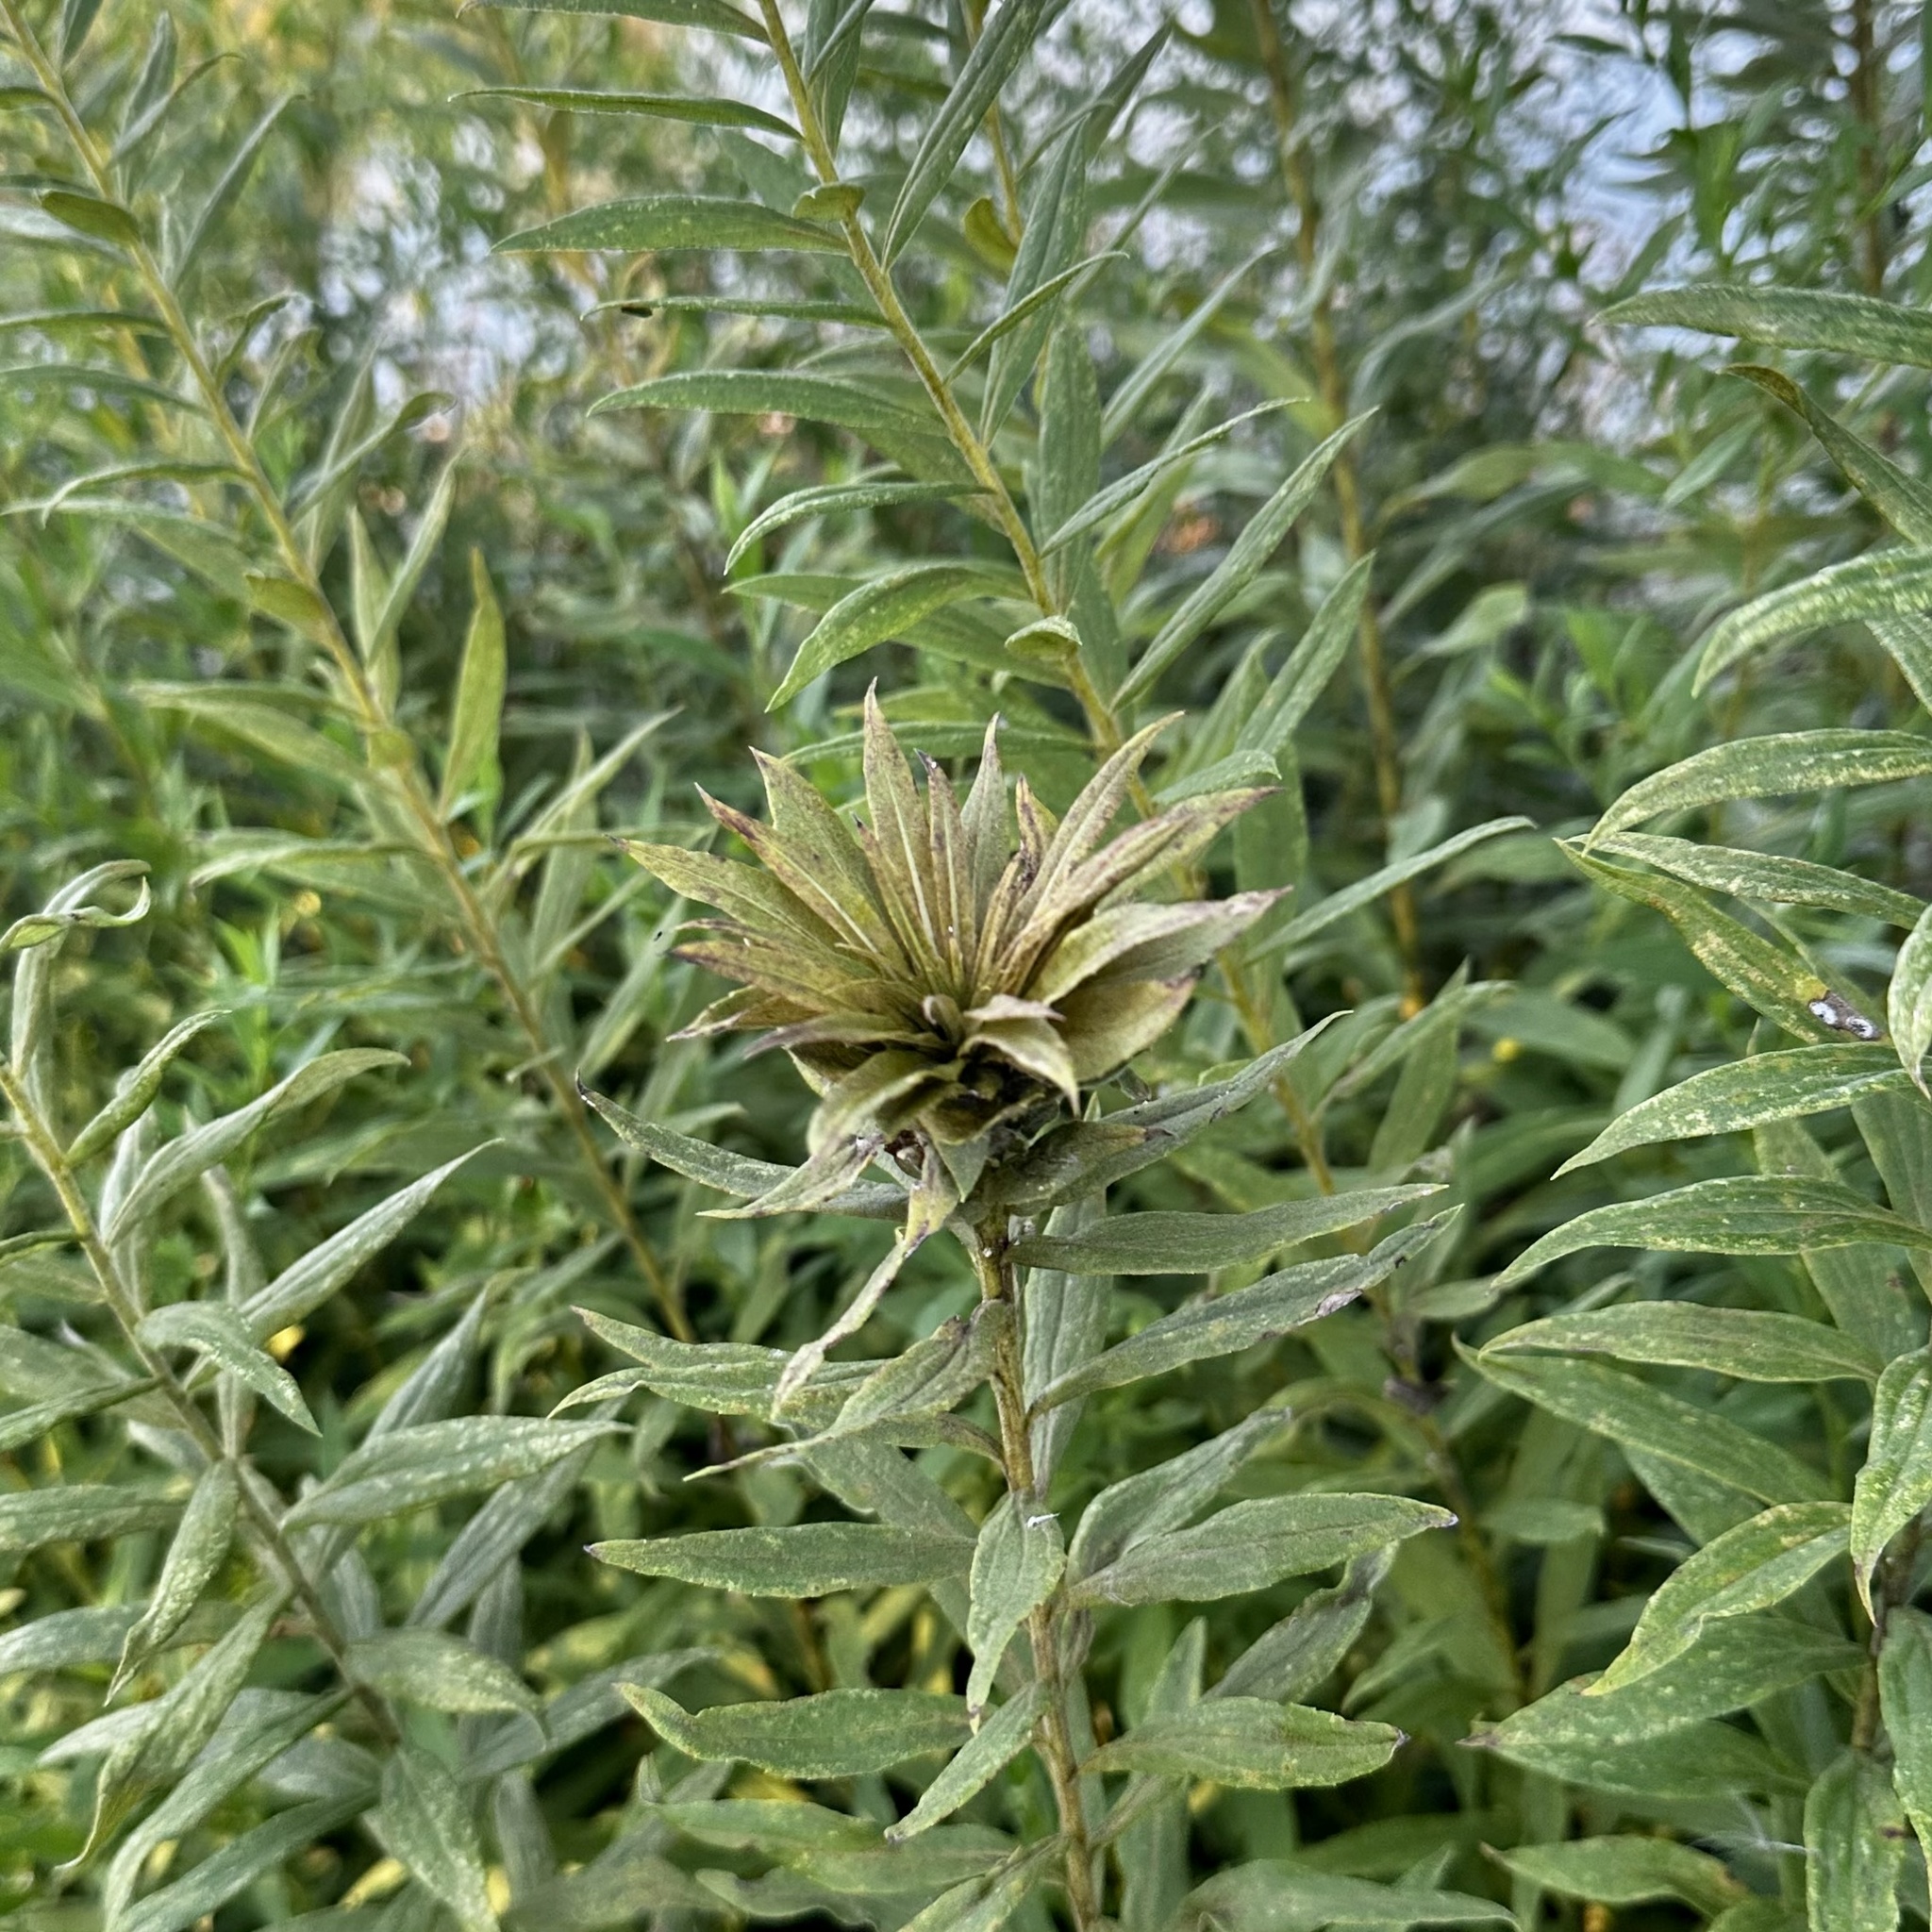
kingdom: Animalia
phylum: Arthropoda
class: Insecta
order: Diptera
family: Cecidomyiidae
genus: Rhopalomyia
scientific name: Rhopalomyia solidaginis
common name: Goldenrod bunch gall midge
